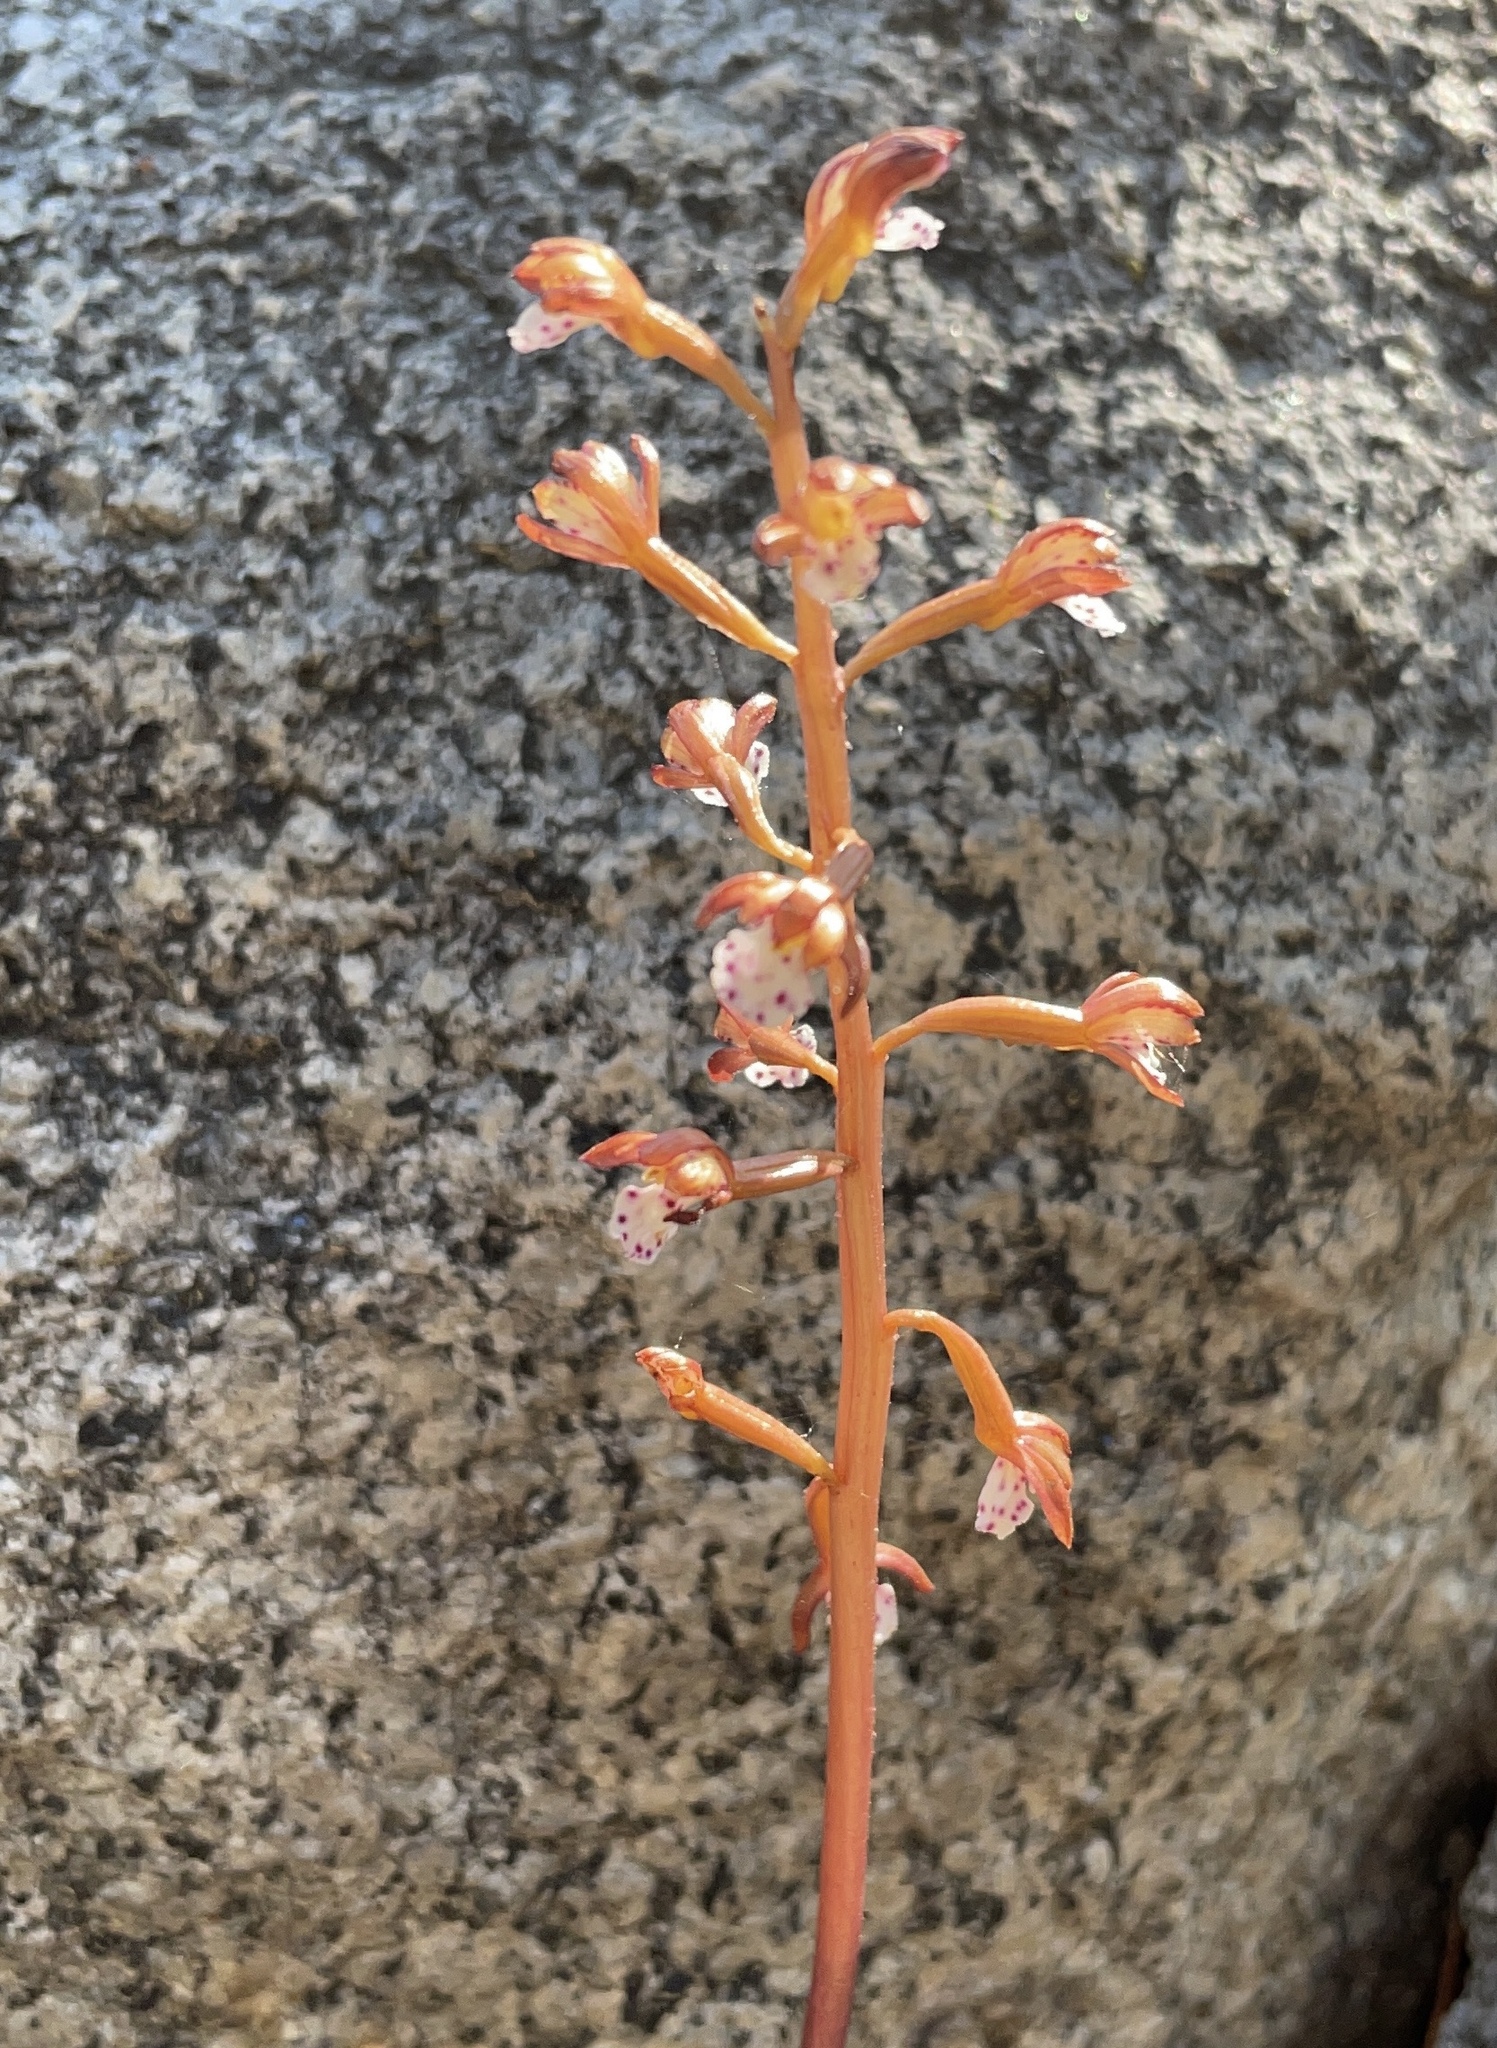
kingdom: Plantae
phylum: Tracheophyta
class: Liliopsida
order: Asparagales
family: Orchidaceae
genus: Corallorhiza
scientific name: Corallorhiza maculata
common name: Spotted coralroot
